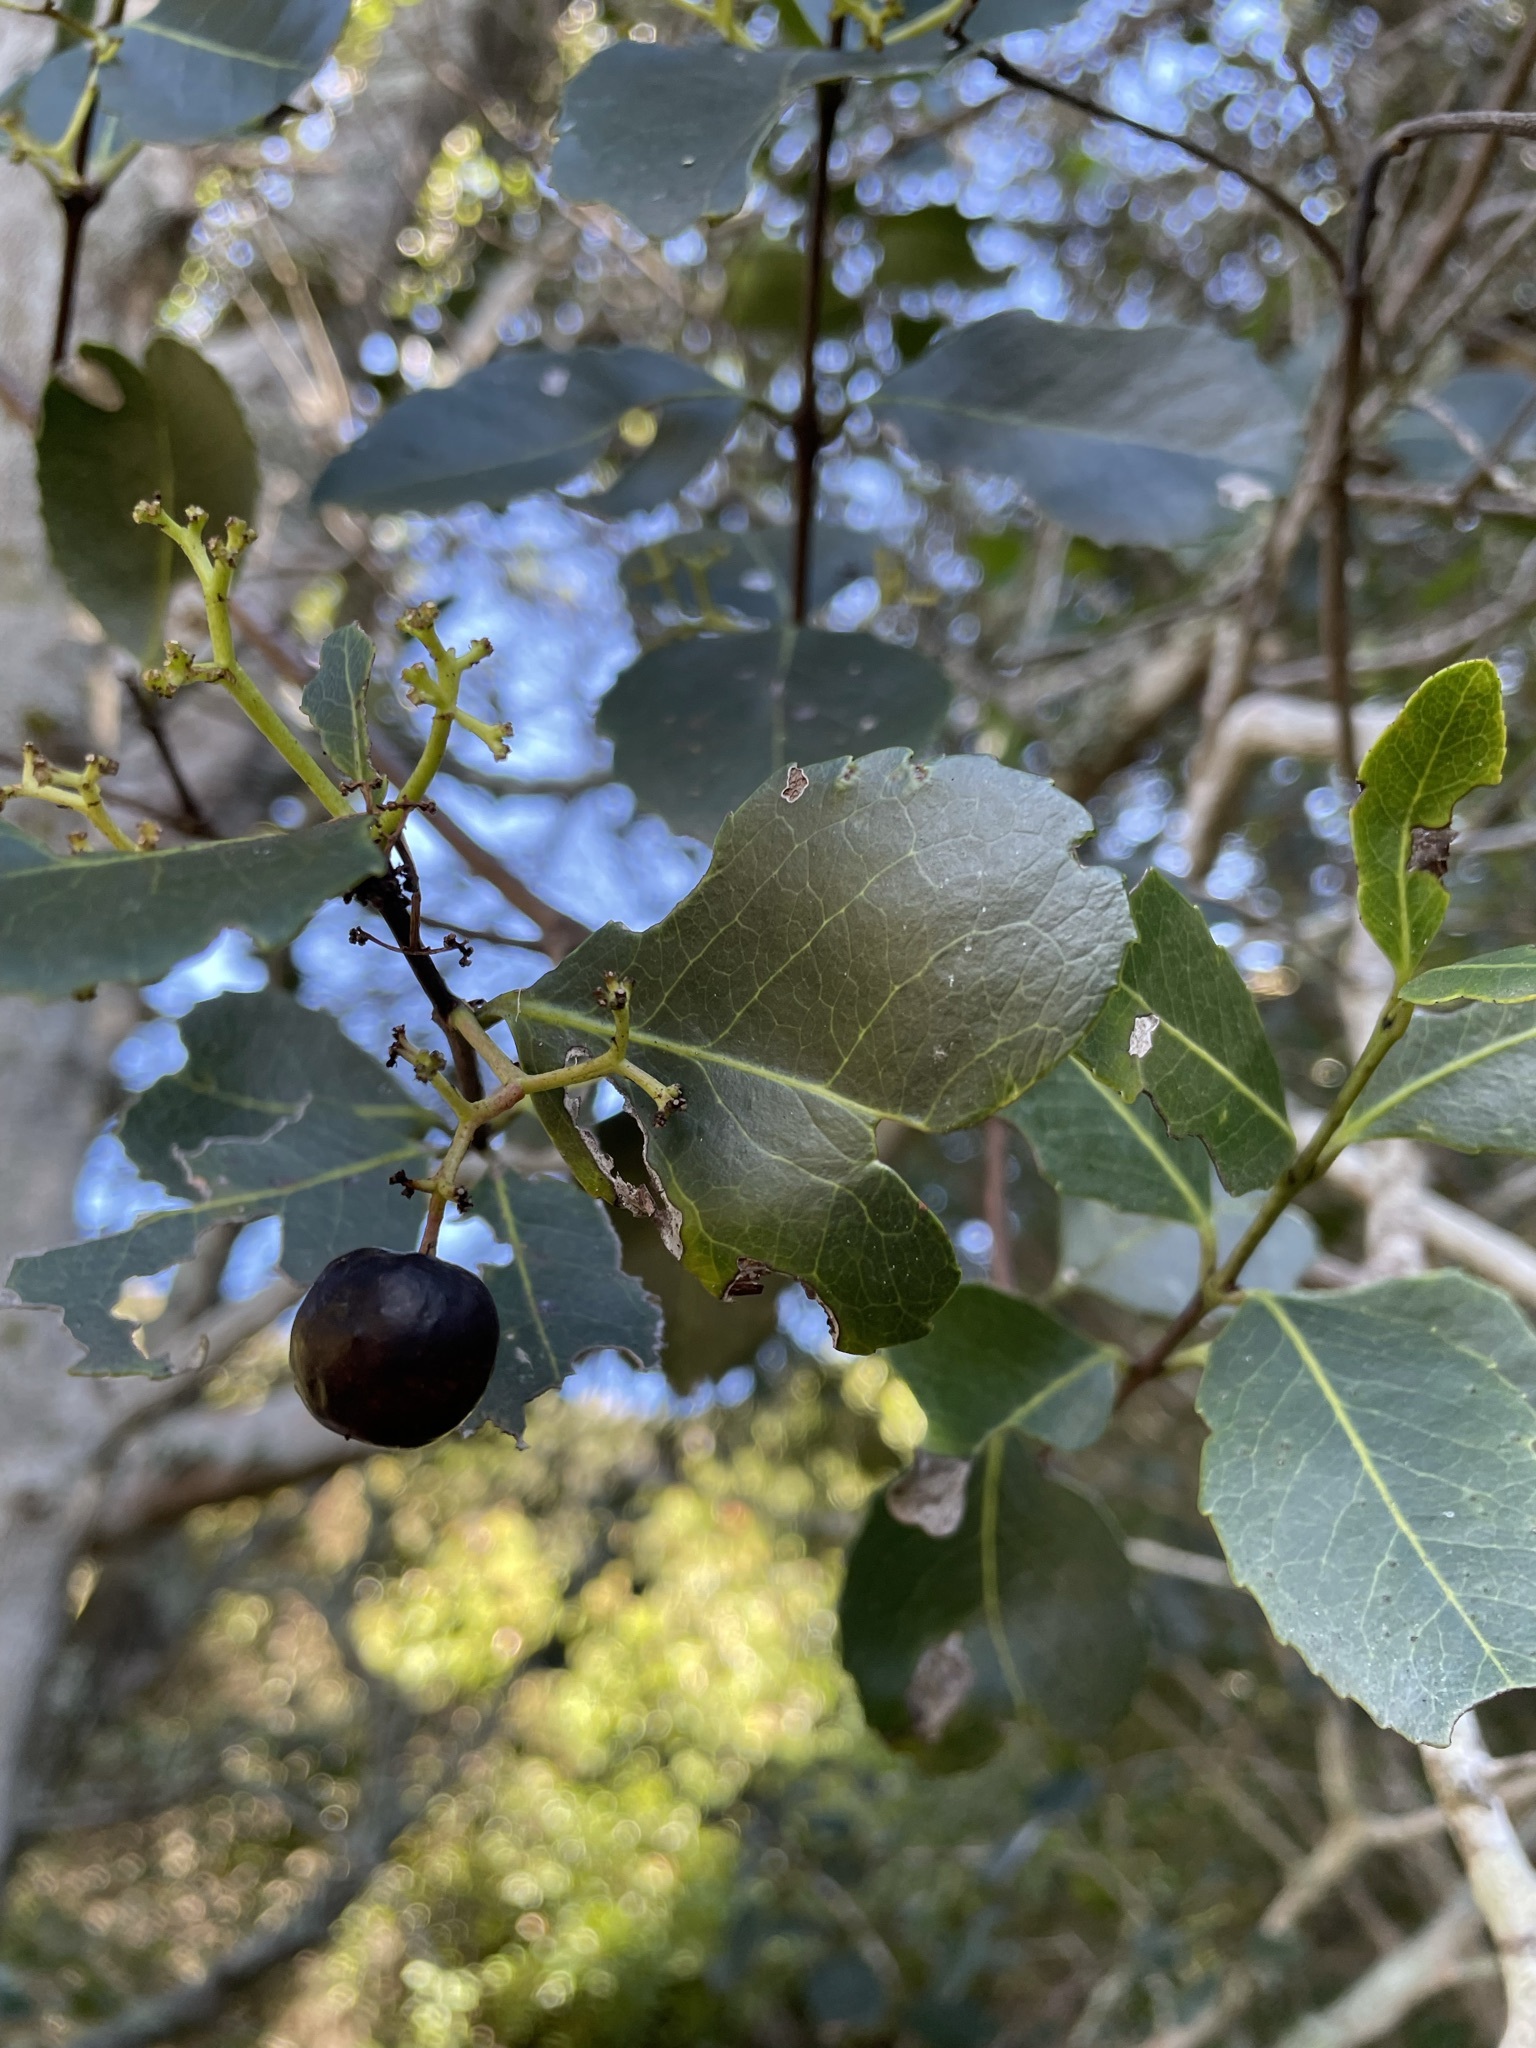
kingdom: Plantae
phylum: Tracheophyta
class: Magnoliopsida
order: Celastrales
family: Celastraceae
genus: Cassine
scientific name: Cassine peragua
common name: Cape saffron
